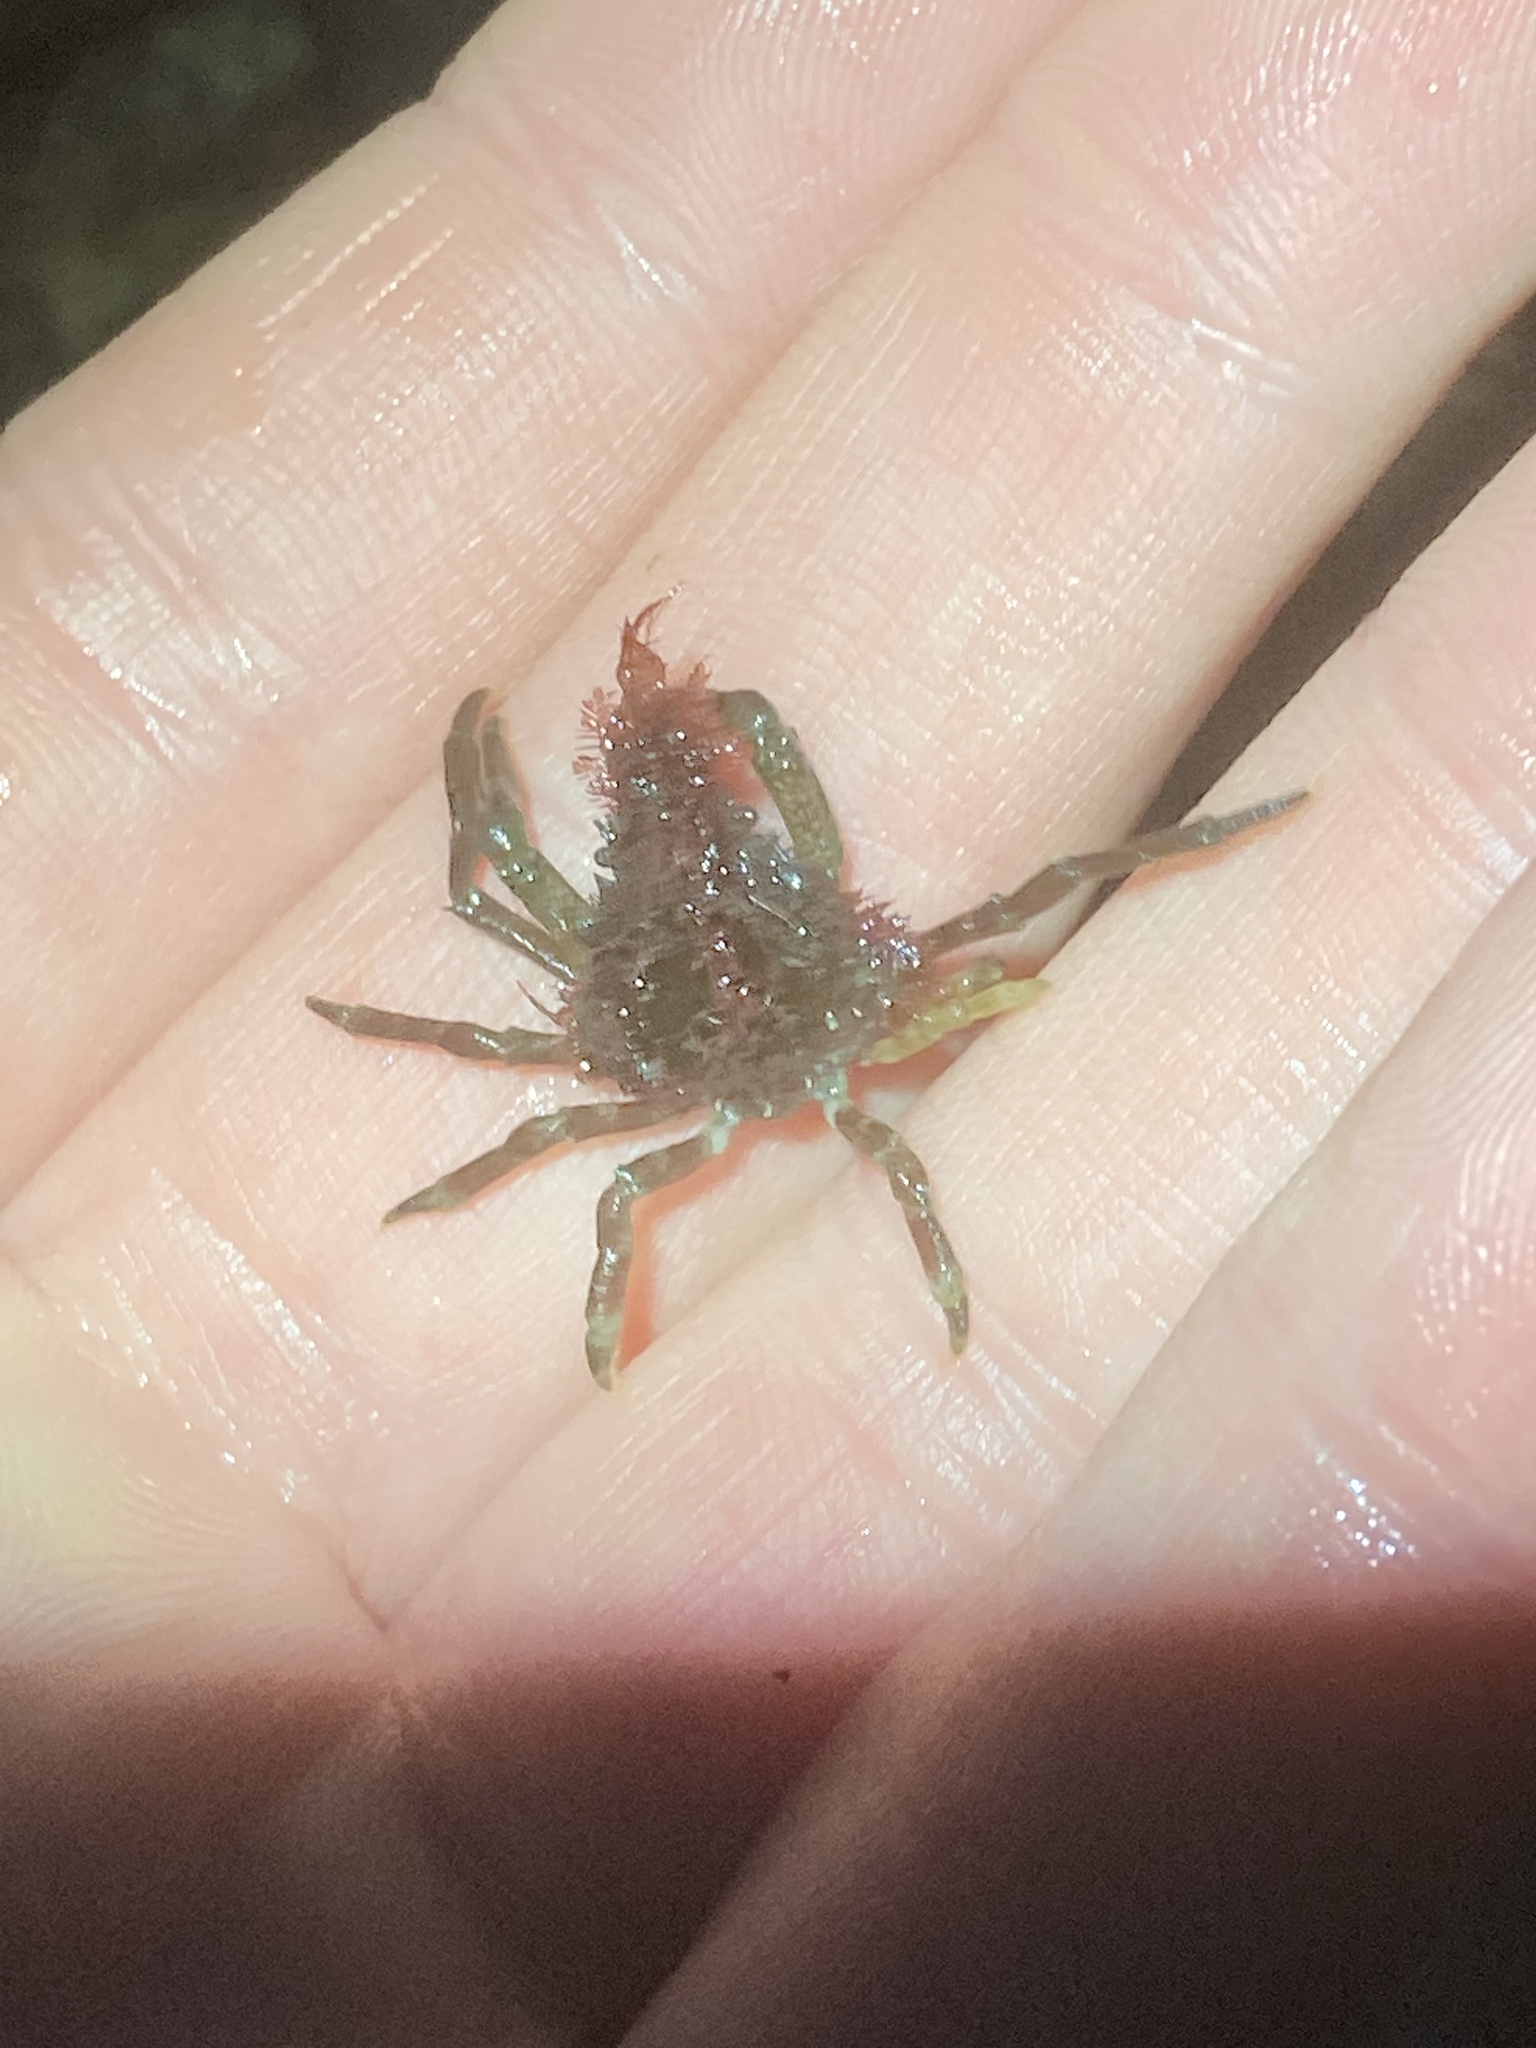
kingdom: Animalia
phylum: Arthropoda
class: Malacostraca
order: Decapoda
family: Epialtidae
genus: Pugettia
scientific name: Pugettia gracilis
